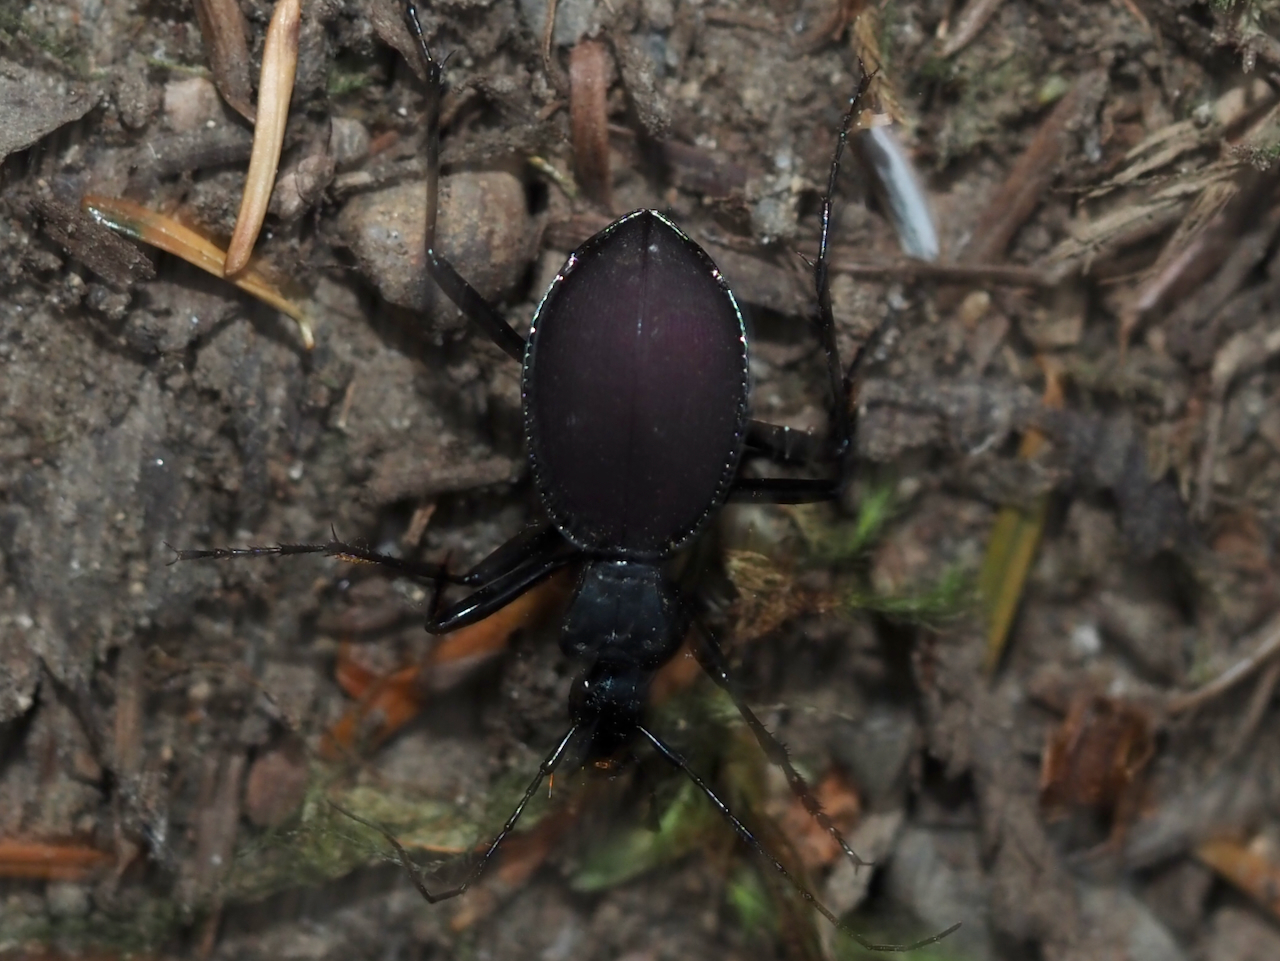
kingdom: Animalia
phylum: Arthropoda
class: Insecta
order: Coleoptera
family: Carabidae
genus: Scaphinotus
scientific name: Scaphinotus angusticollis
